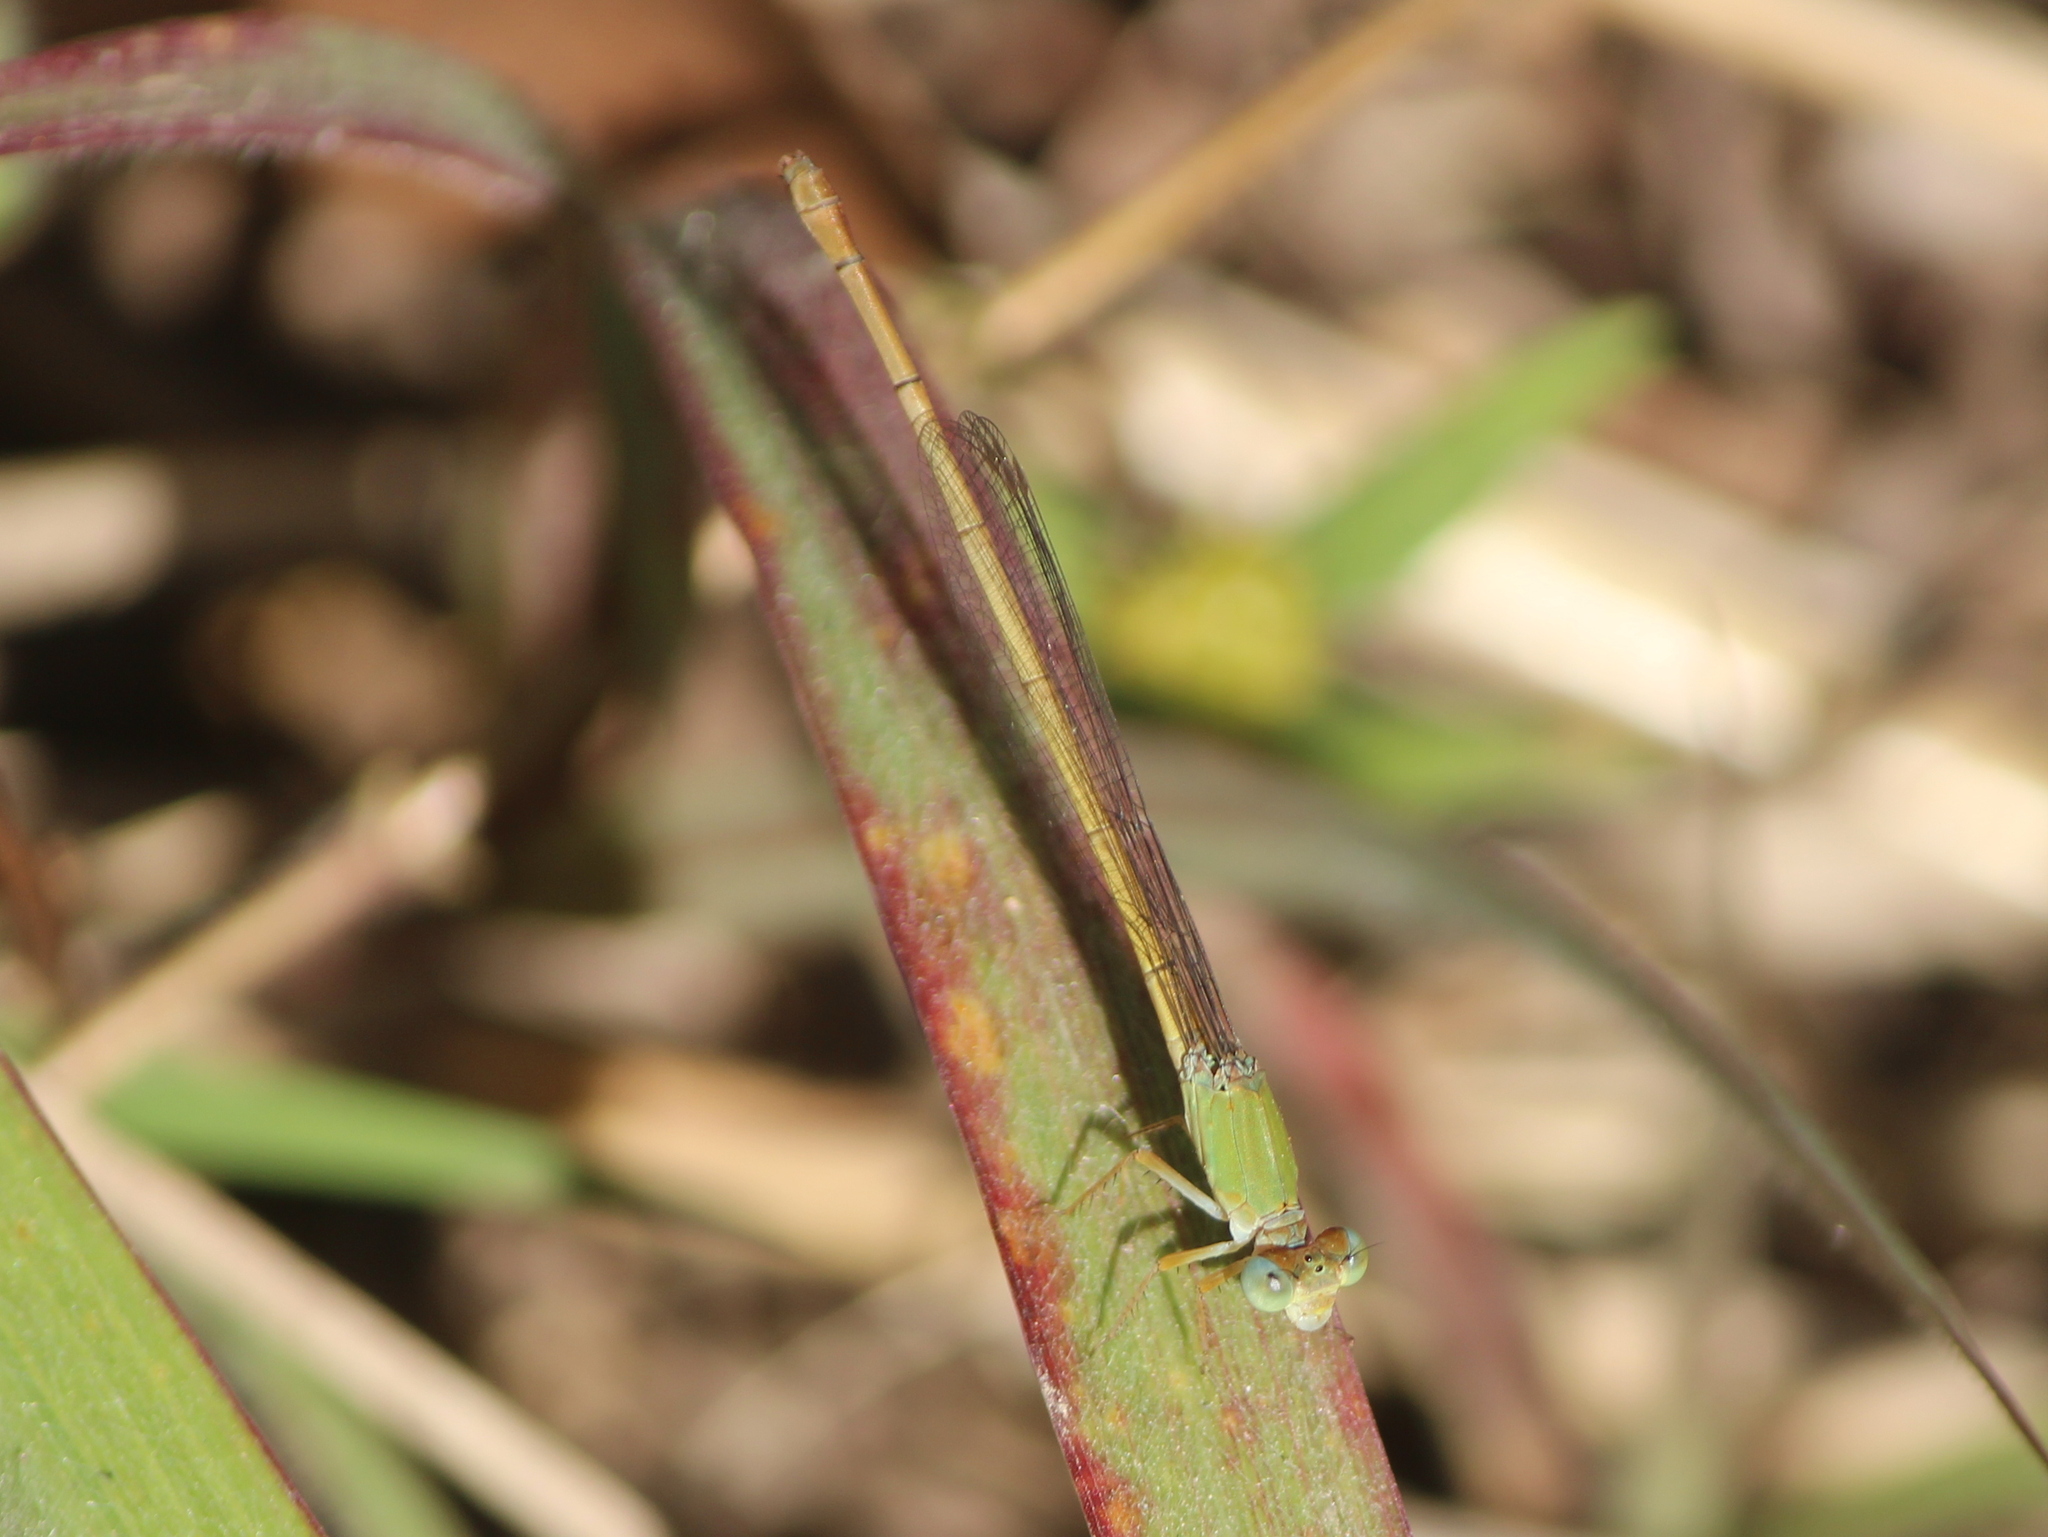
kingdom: Animalia
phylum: Arthropoda
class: Insecta
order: Odonata
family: Coenagrionidae
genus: Ceriagrion
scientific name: Ceriagrion coromandelianum
